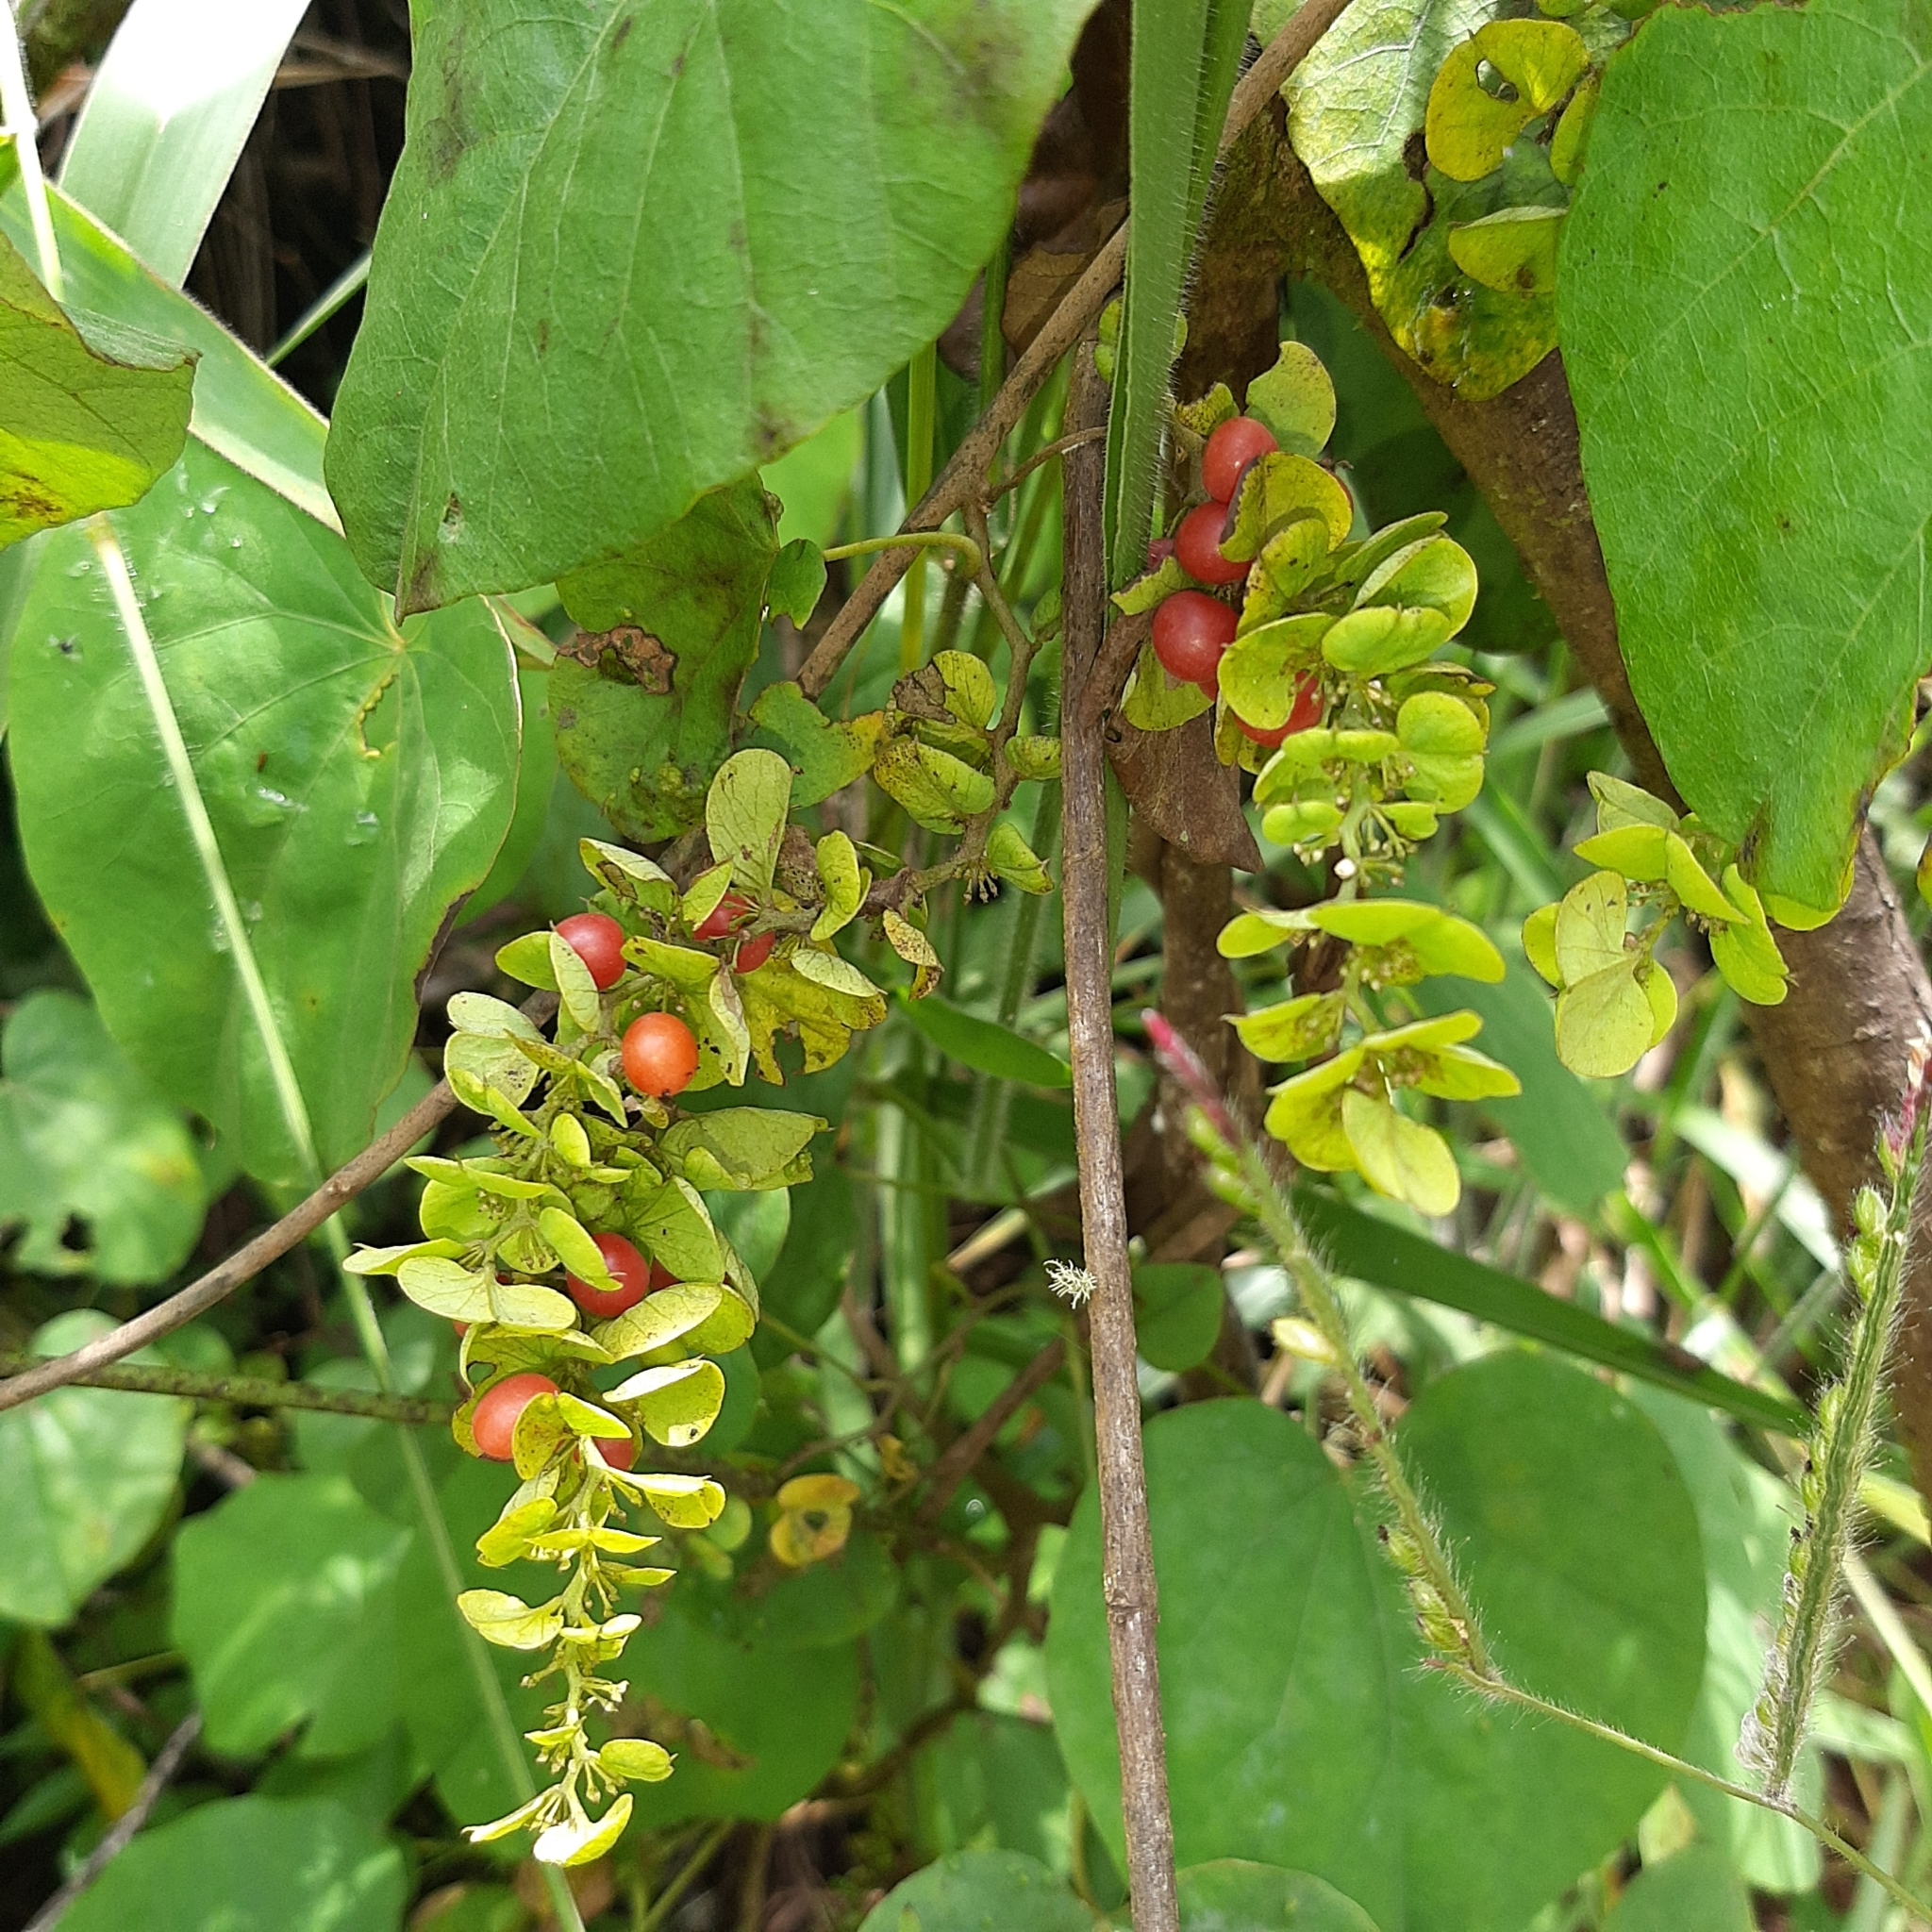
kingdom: Plantae
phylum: Tracheophyta
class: Magnoliopsida
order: Ranunculales
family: Menispermaceae
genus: Cissampelos
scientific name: Cissampelos pareira
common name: Velvetleaf
